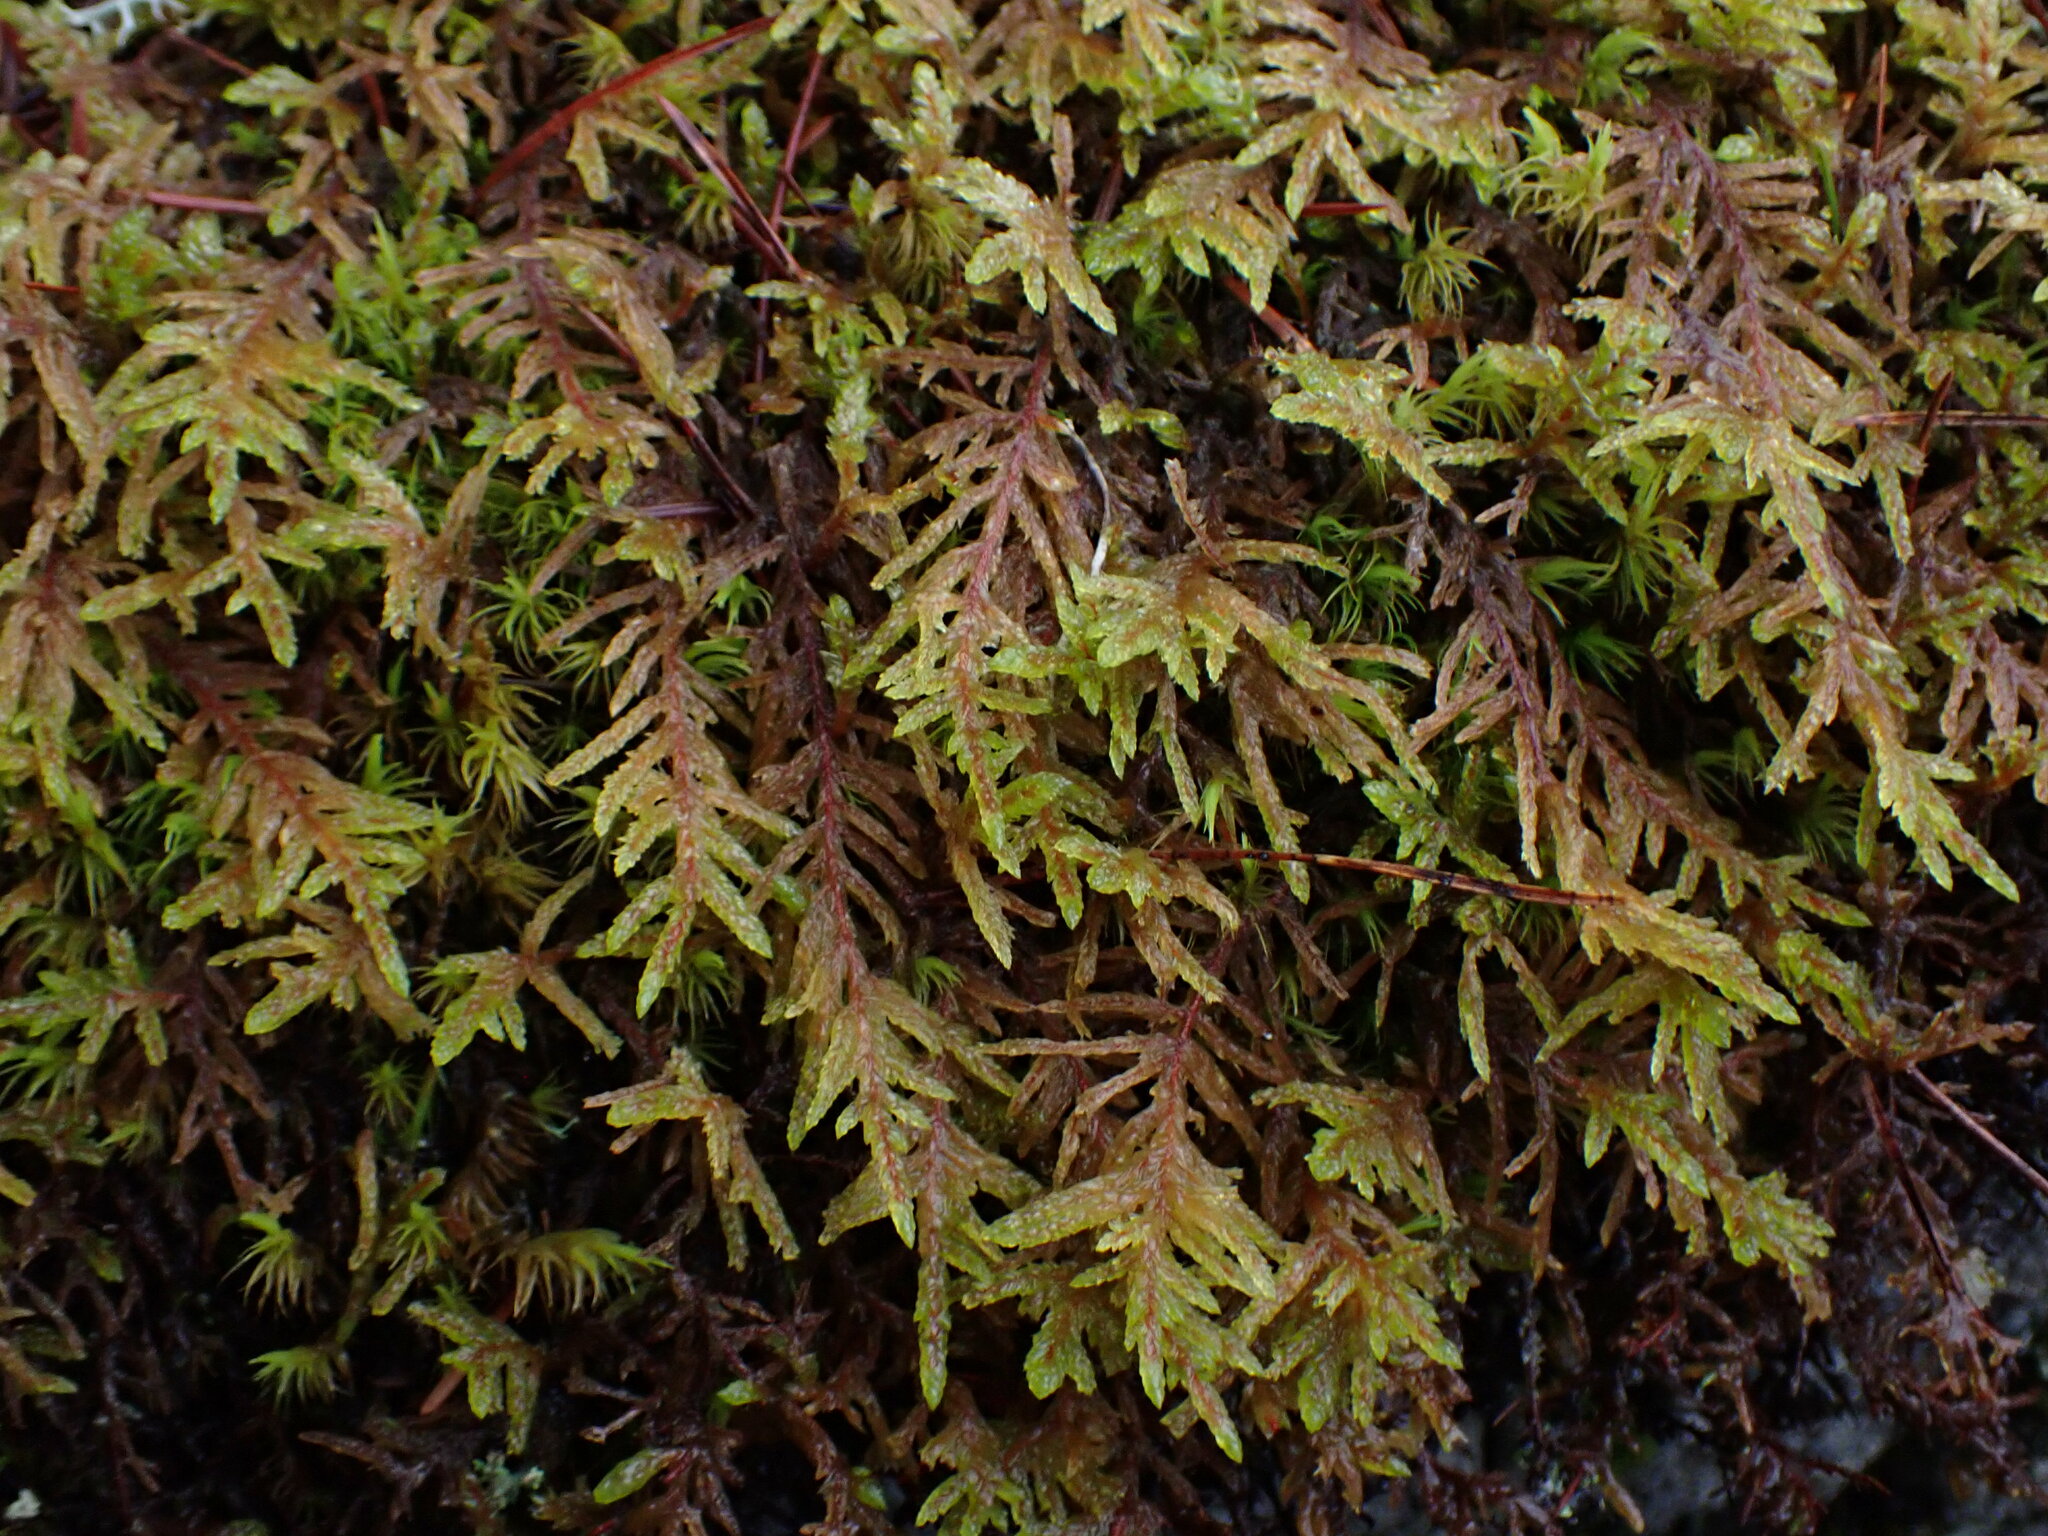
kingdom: Plantae
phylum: Bryophyta
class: Bryopsida
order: Hypnales
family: Hylocomiaceae
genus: Pleurozium
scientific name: Pleurozium schreberi
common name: Red-stemmed feather moss
